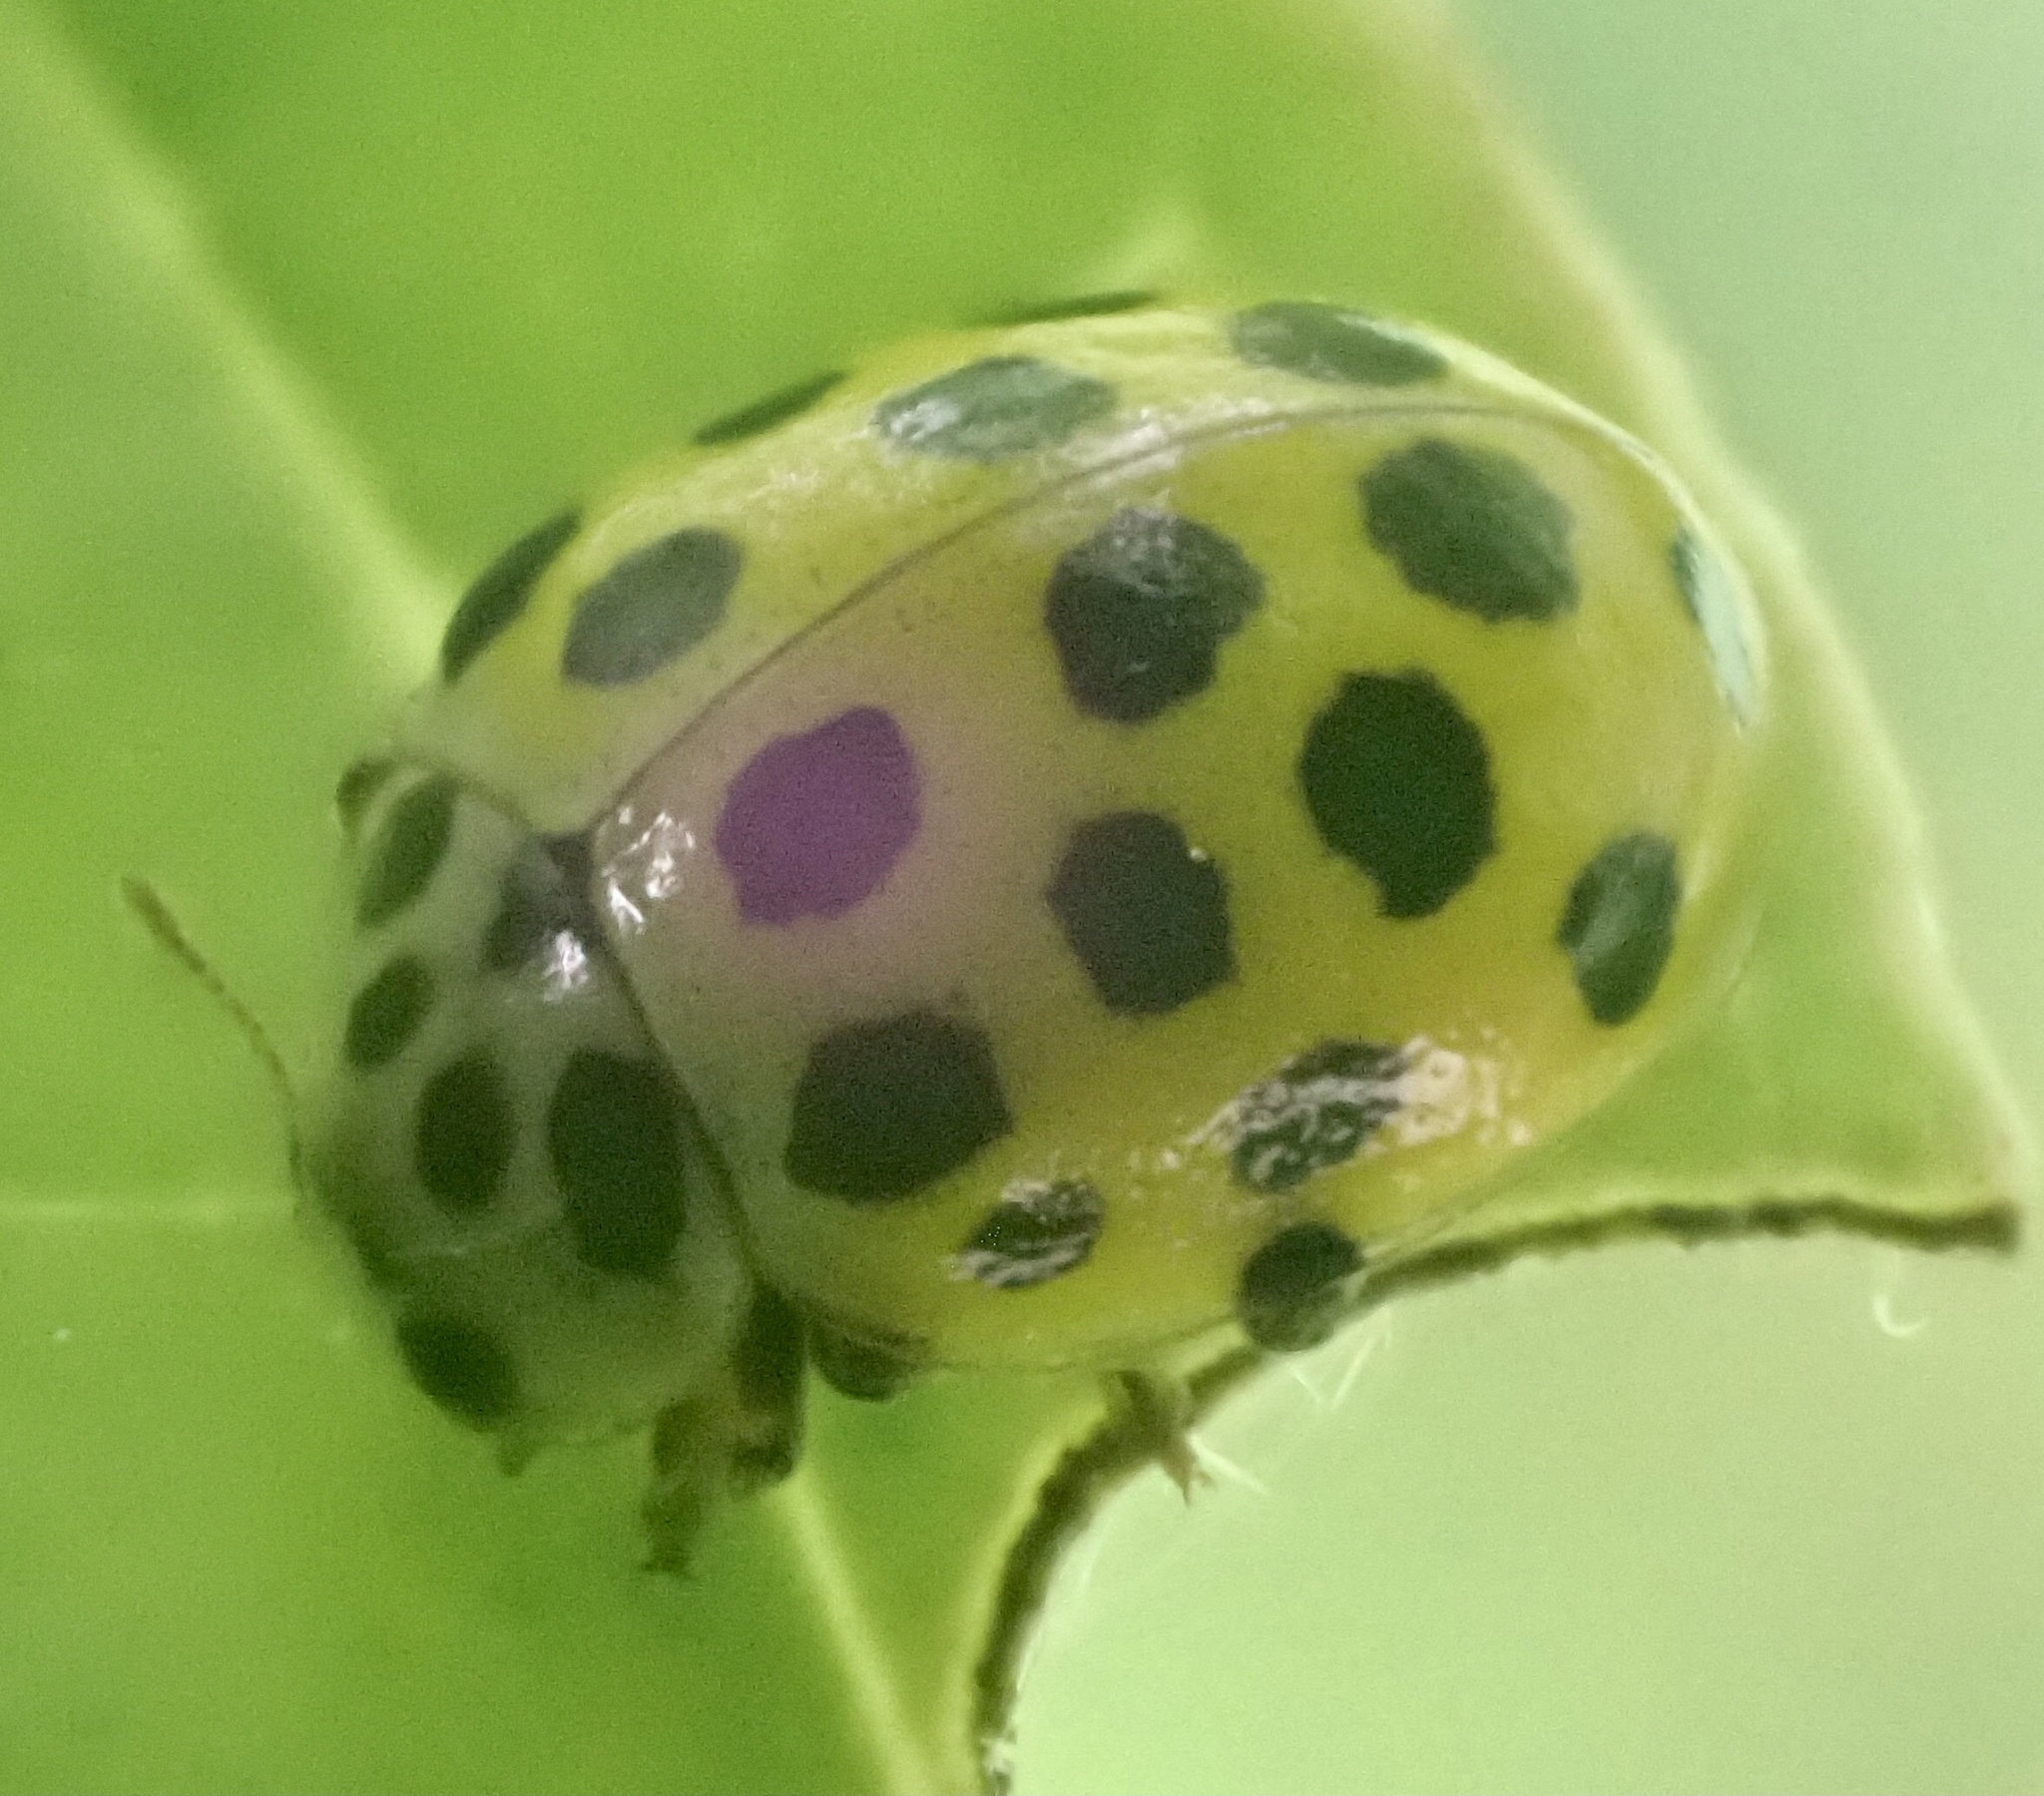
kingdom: Animalia
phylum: Arthropoda
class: Insecta
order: Coleoptera
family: Coccinellidae
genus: Psyllobora
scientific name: Psyllobora vigintiduopunctata
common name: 22-spot ladybird
